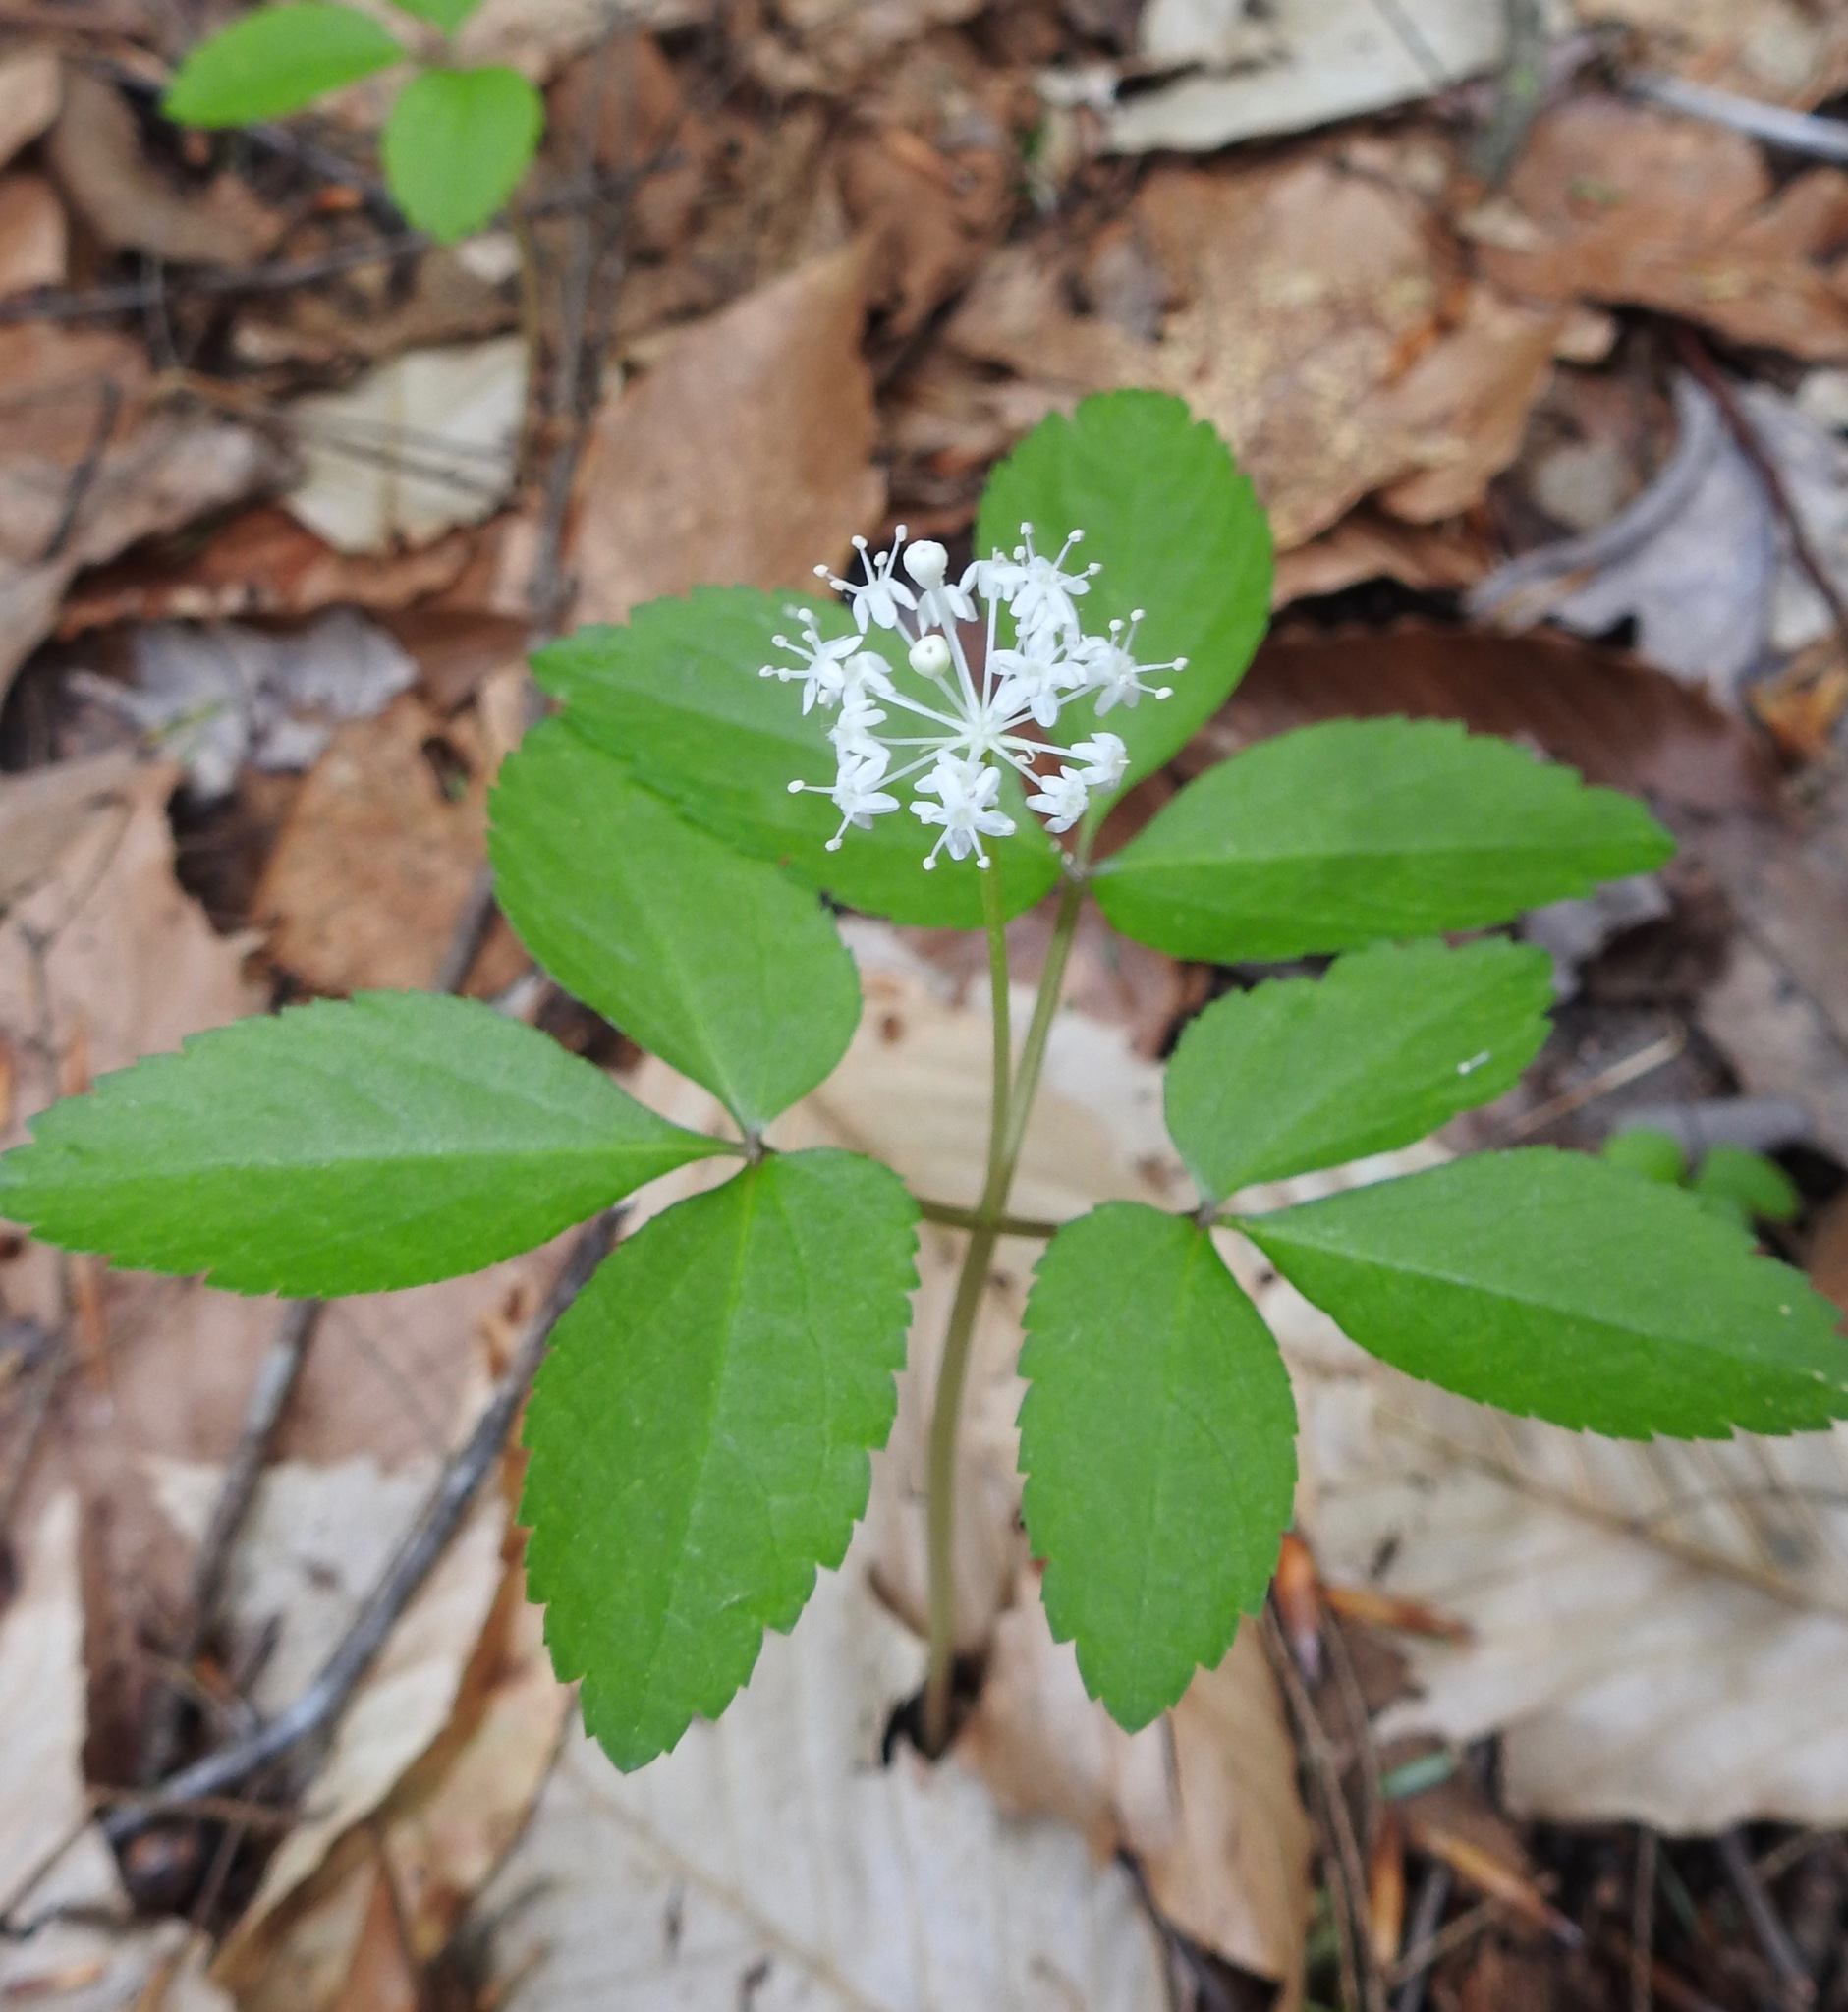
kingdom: Plantae
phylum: Tracheophyta
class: Magnoliopsida
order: Apiales
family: Araliaceae
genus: Panax
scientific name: Panax trifolius
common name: Dwarf ginseng
